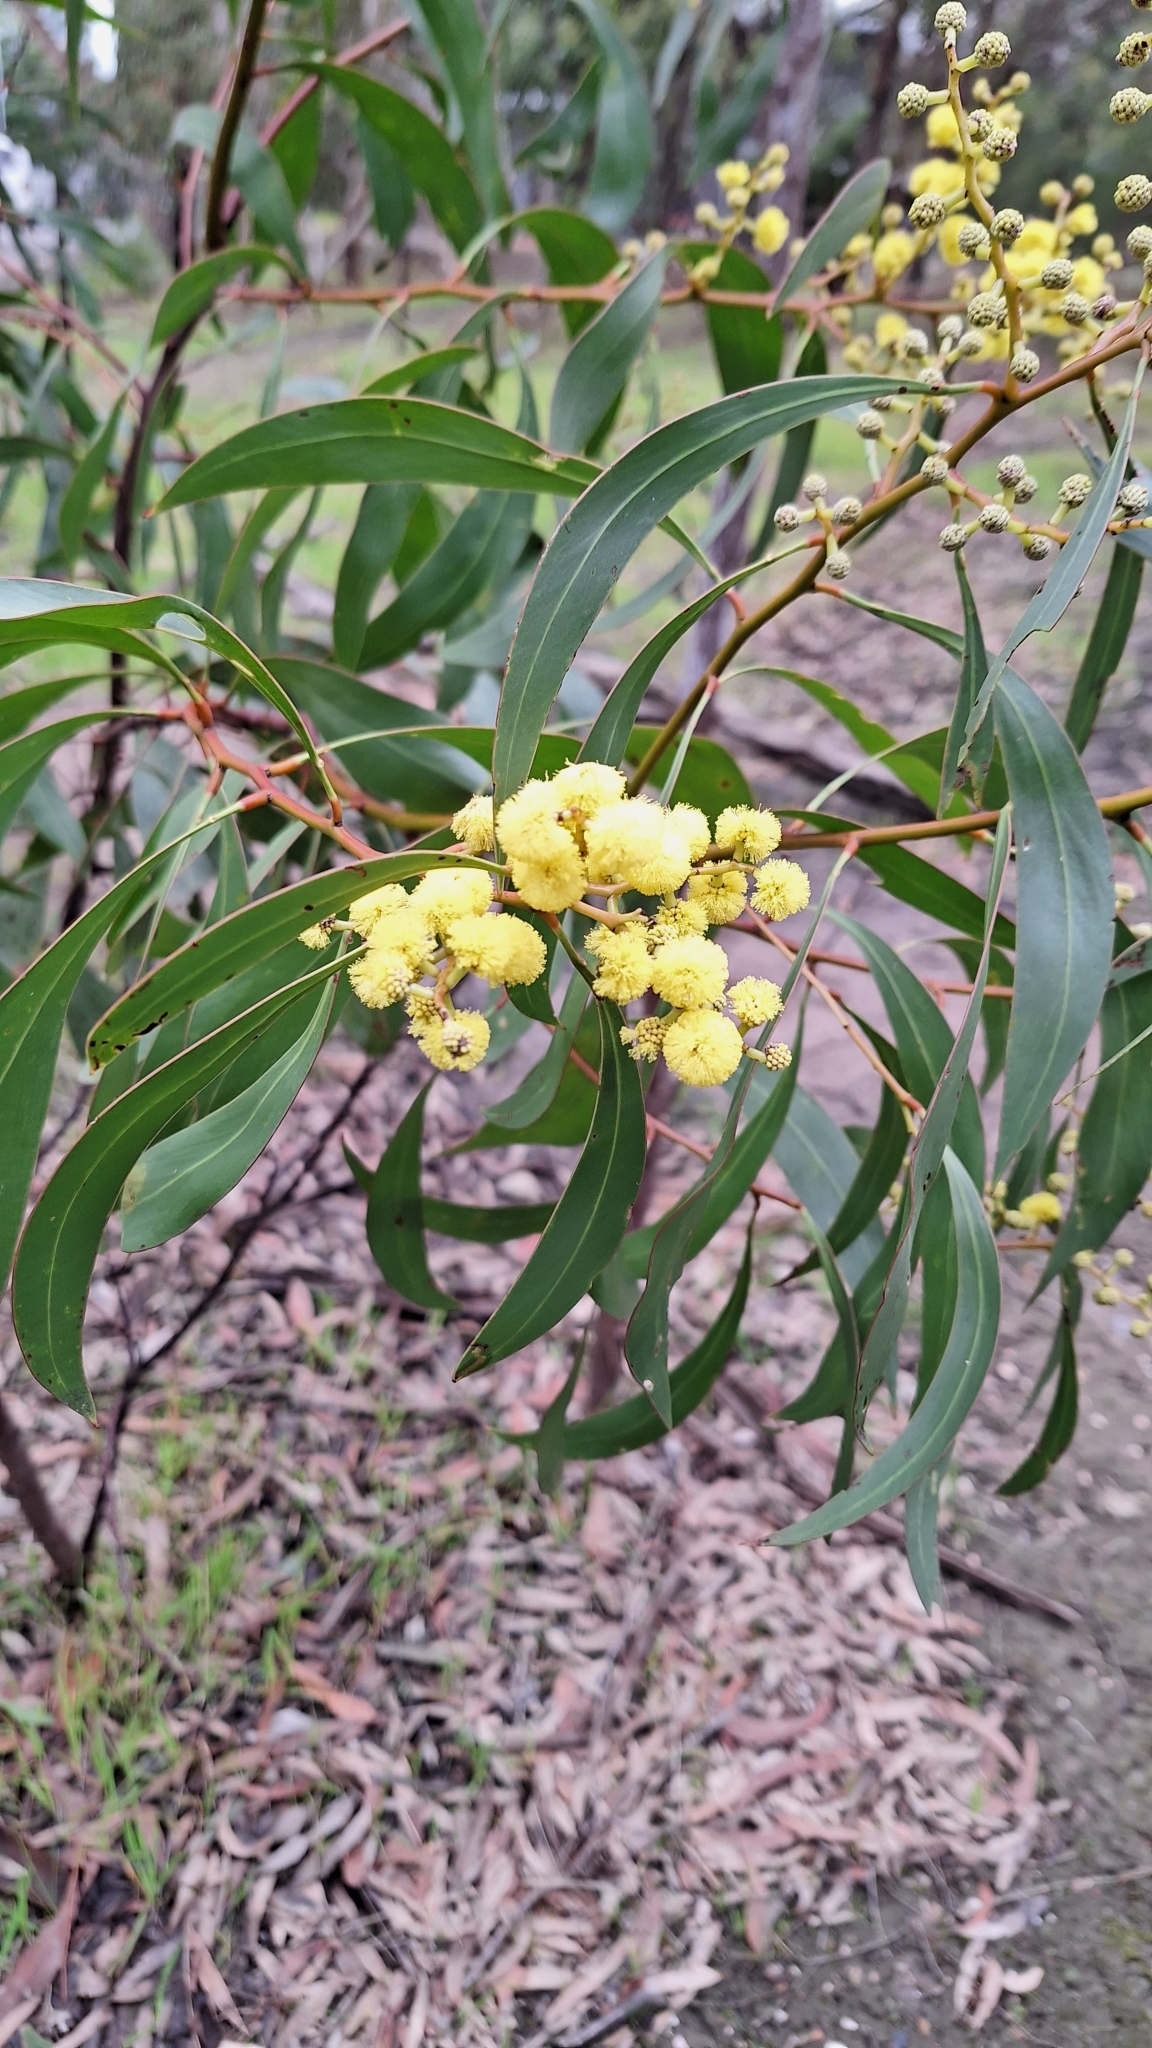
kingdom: Plantae
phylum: Tracheophyta
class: Magnoliopsida
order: Fabales
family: Fabaceae
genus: Acacia
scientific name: Acacia pycnantha
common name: Golden wattle
